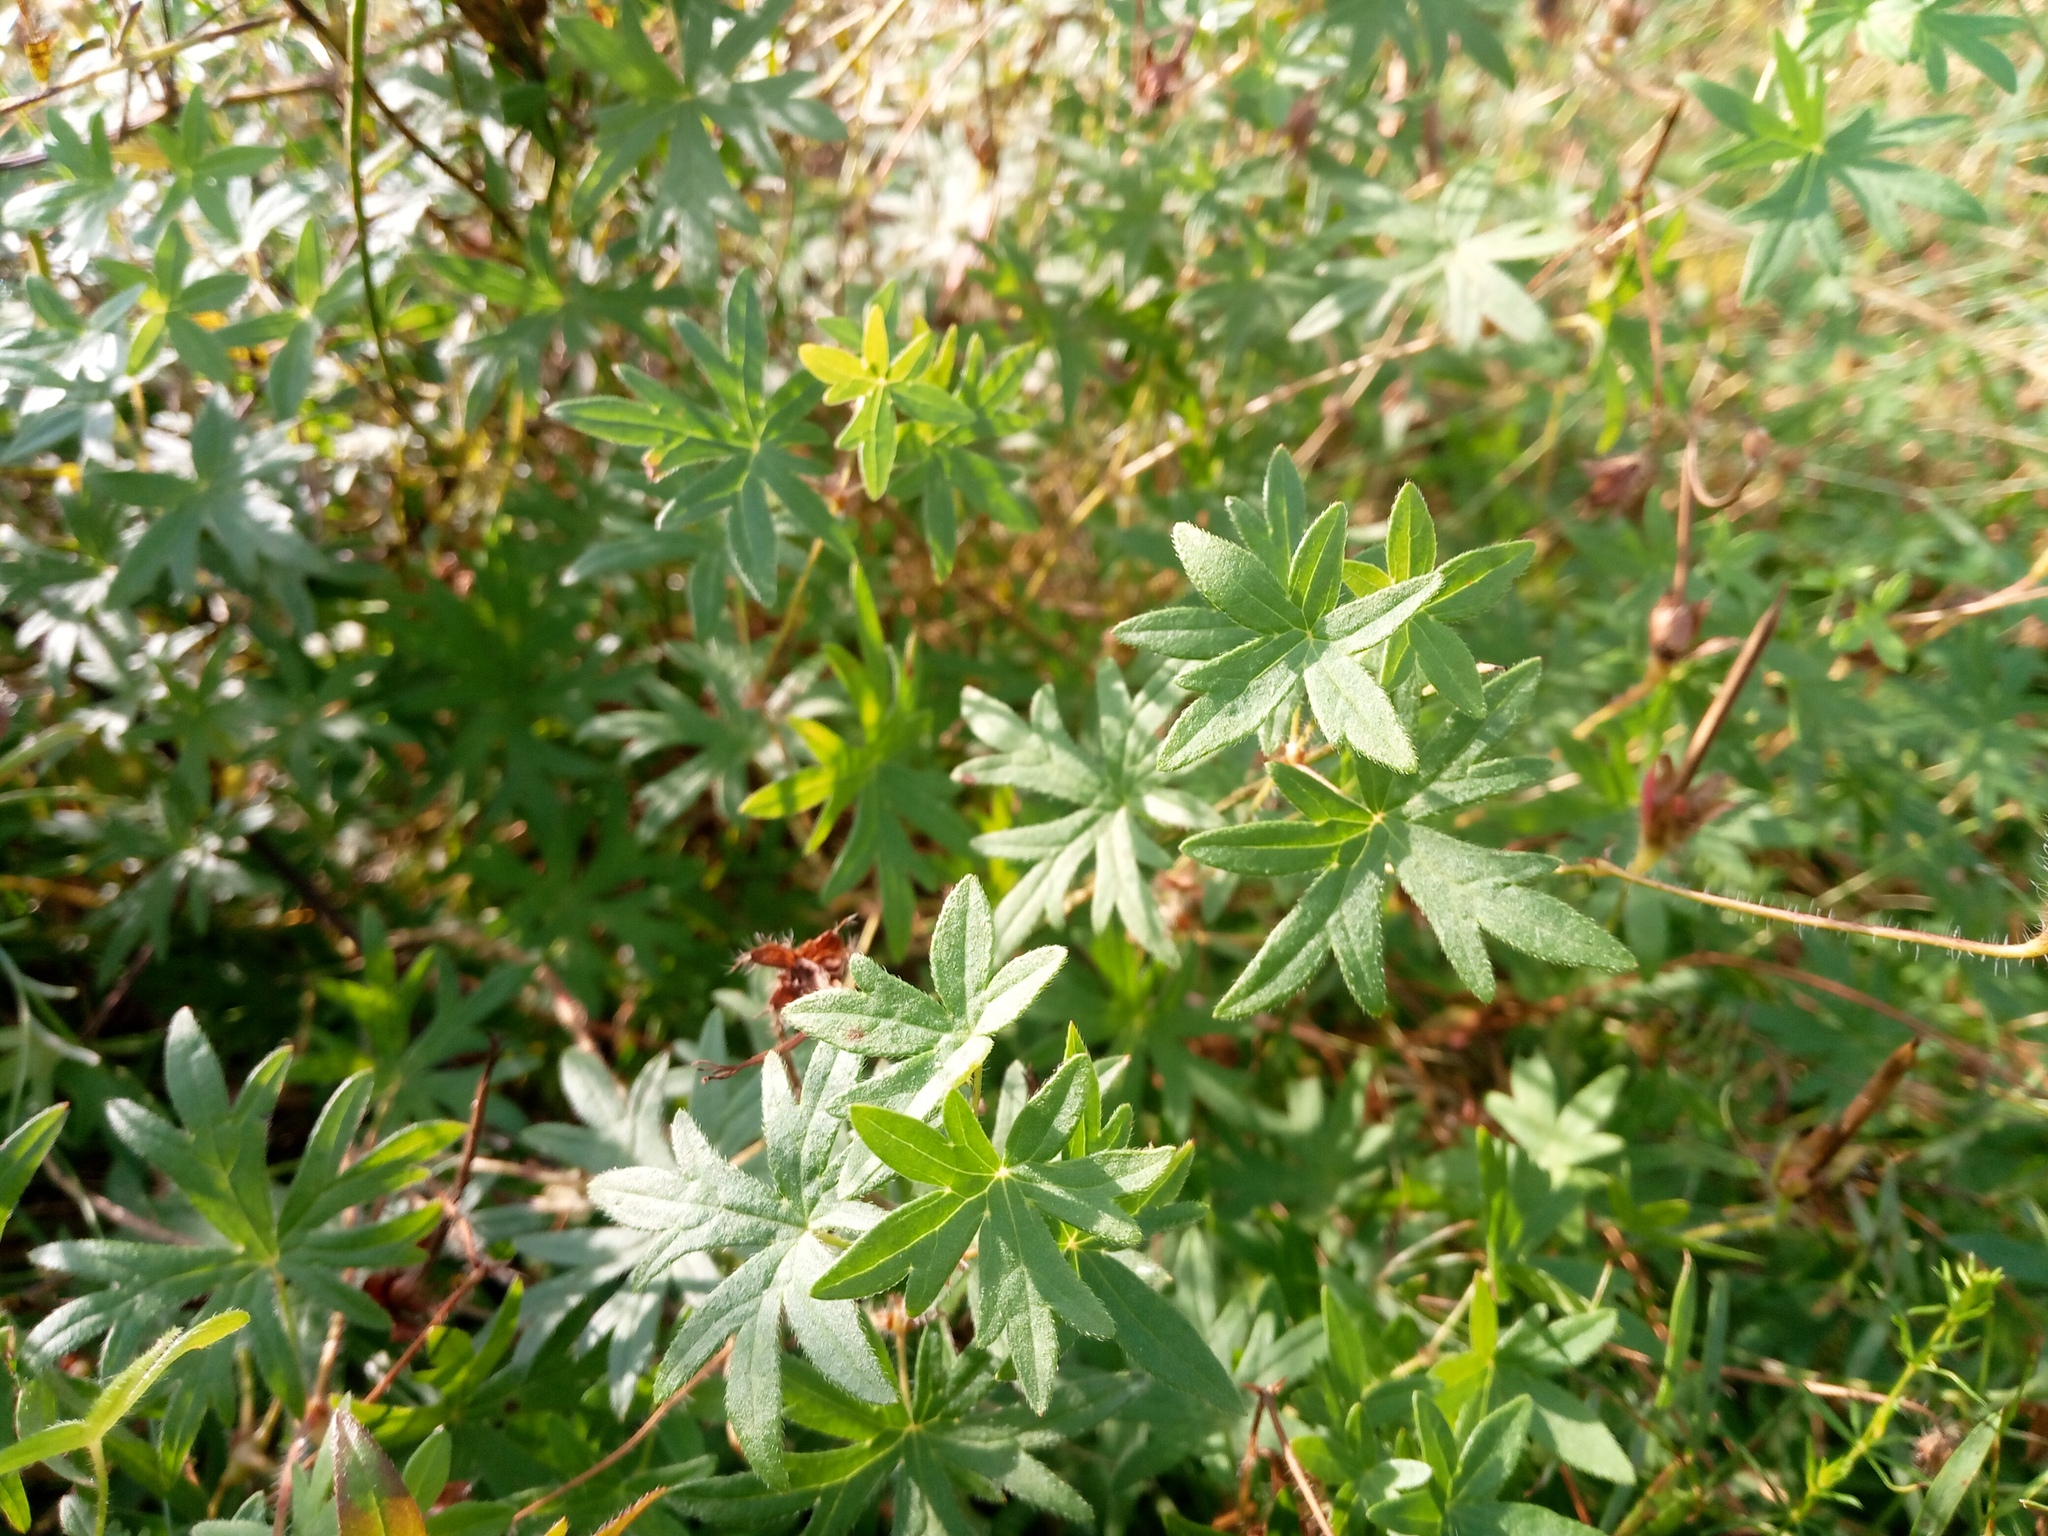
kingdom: Plantae
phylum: Tracheophyta
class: Magnoliopsida
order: Geraniales
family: Geraniaceae
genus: Geranium
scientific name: Geranium sanguineum
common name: Bloody crane's-bill
